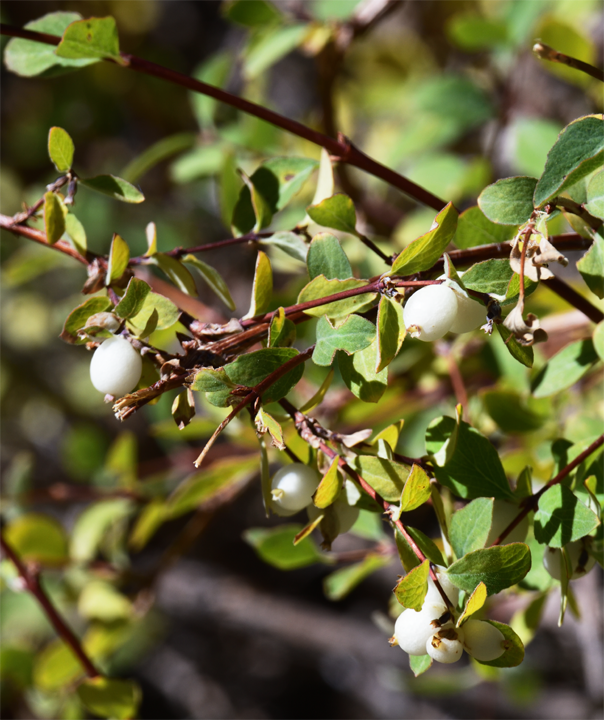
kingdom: Plantae
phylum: Tracheophyta
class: Magnoliopsida
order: Dipsacales
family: Caprifoliaceae
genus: Symphoricarpos
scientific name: Symphoricarpos rotundifolius
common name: Round-leaved snowberry
